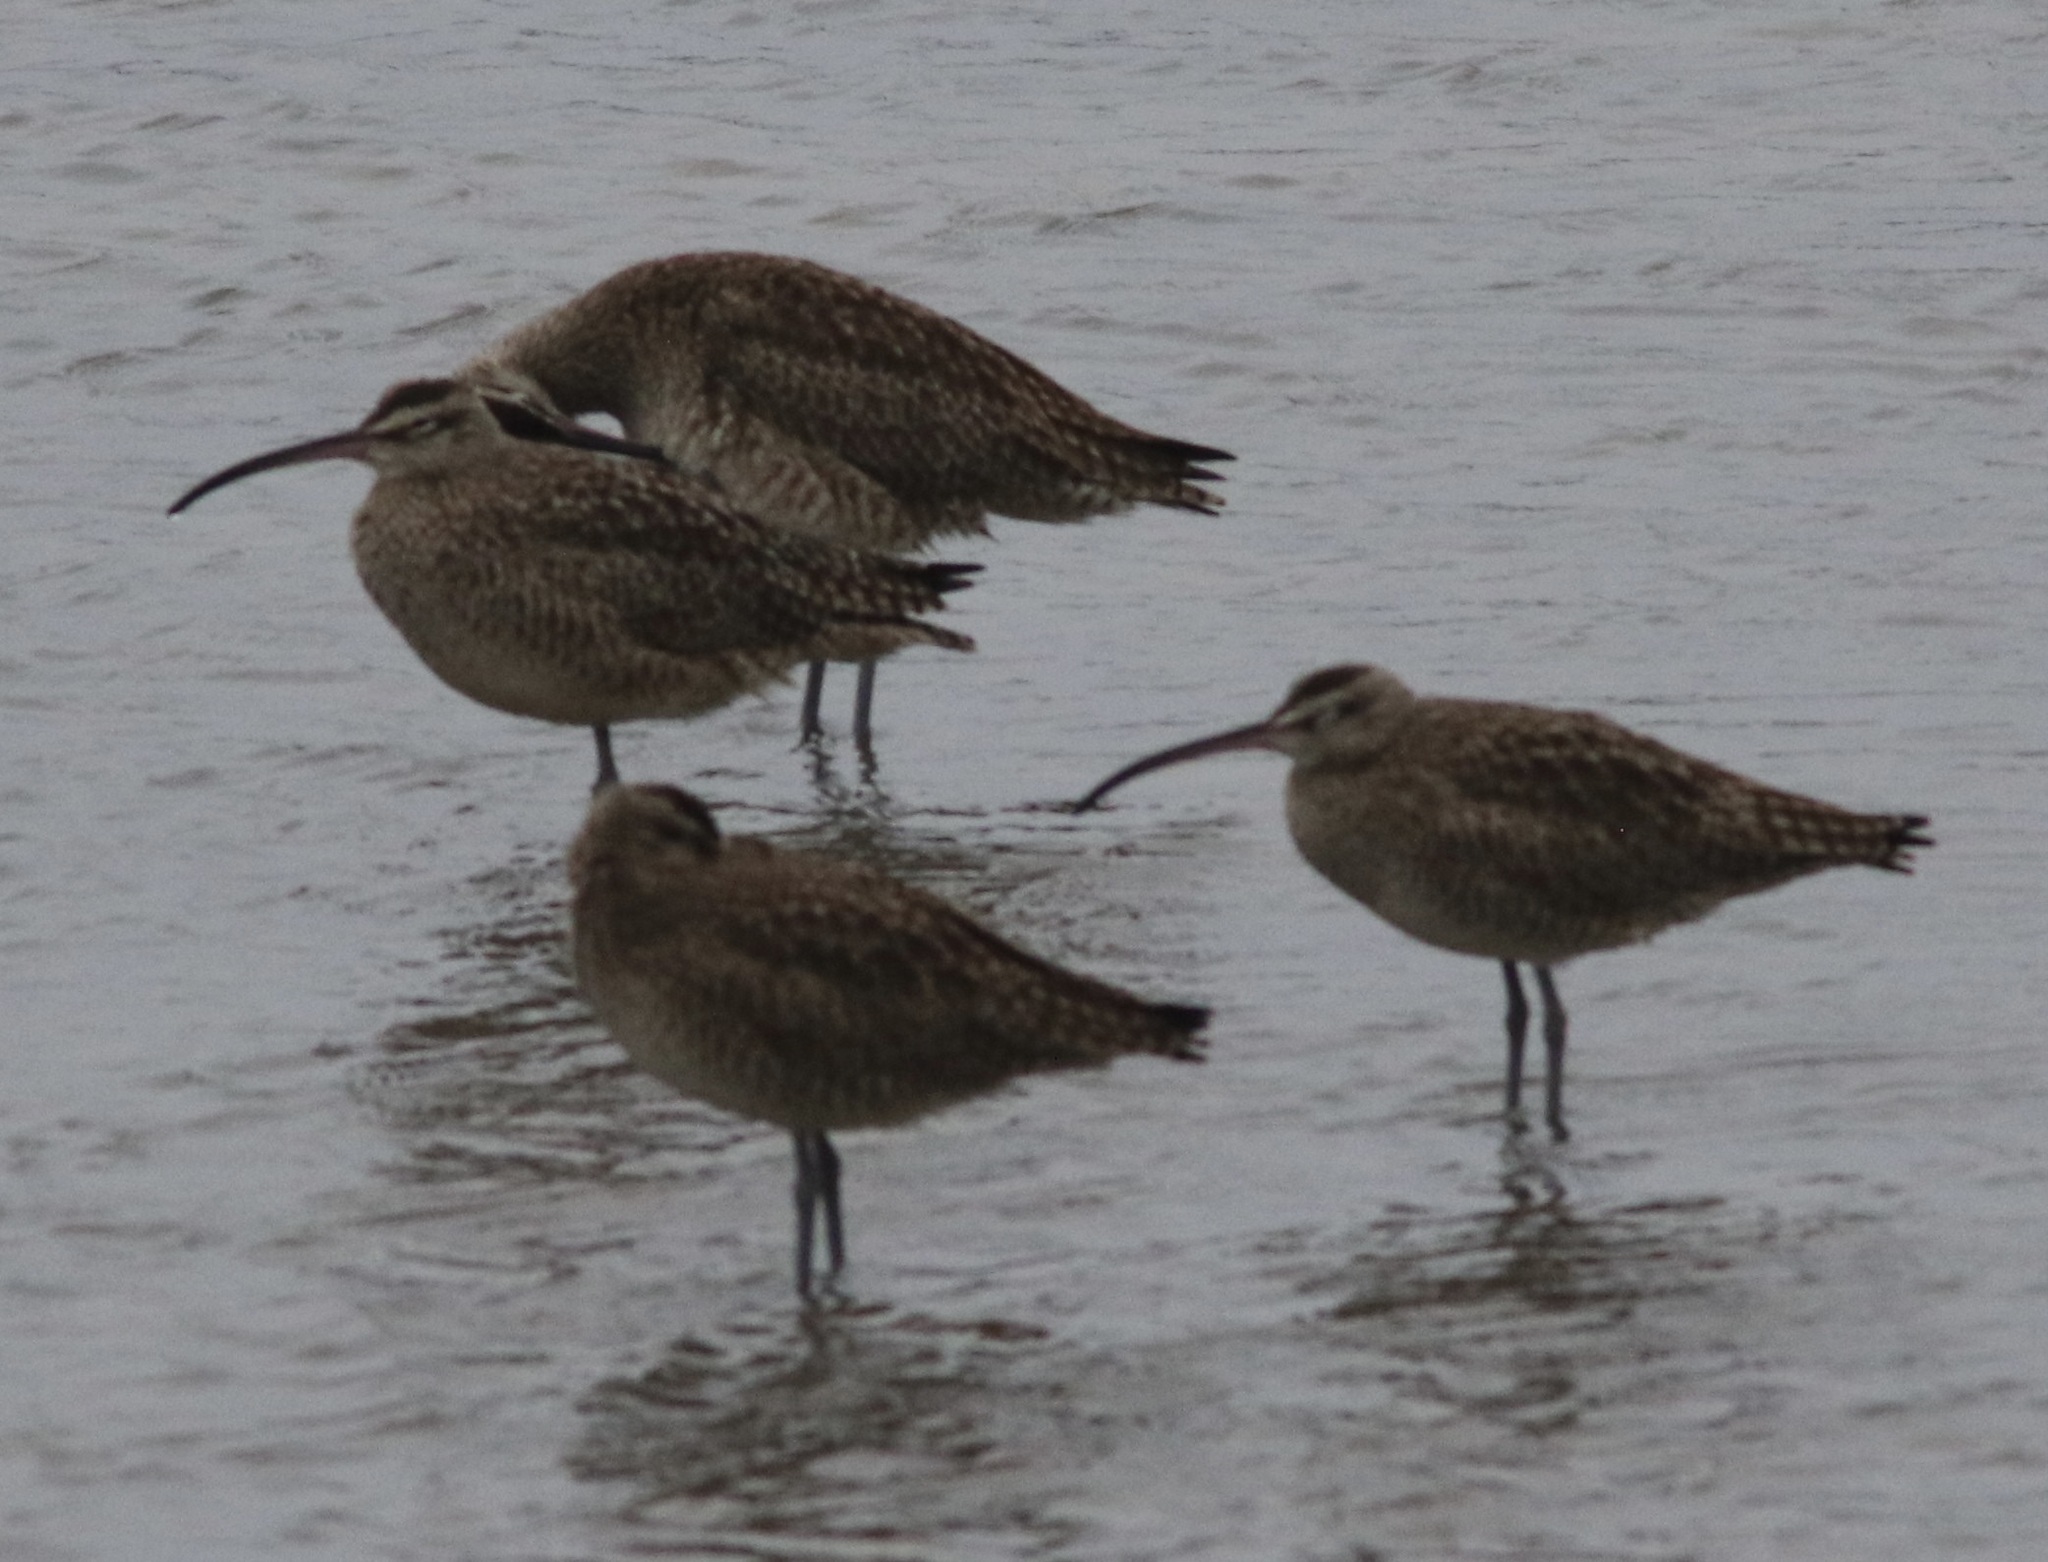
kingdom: Animalia
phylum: Chordata
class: Aves
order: Charadriiformes
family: Scolopacidae
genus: Numenius
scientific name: Numenius phaeopus
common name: Whimbrel
